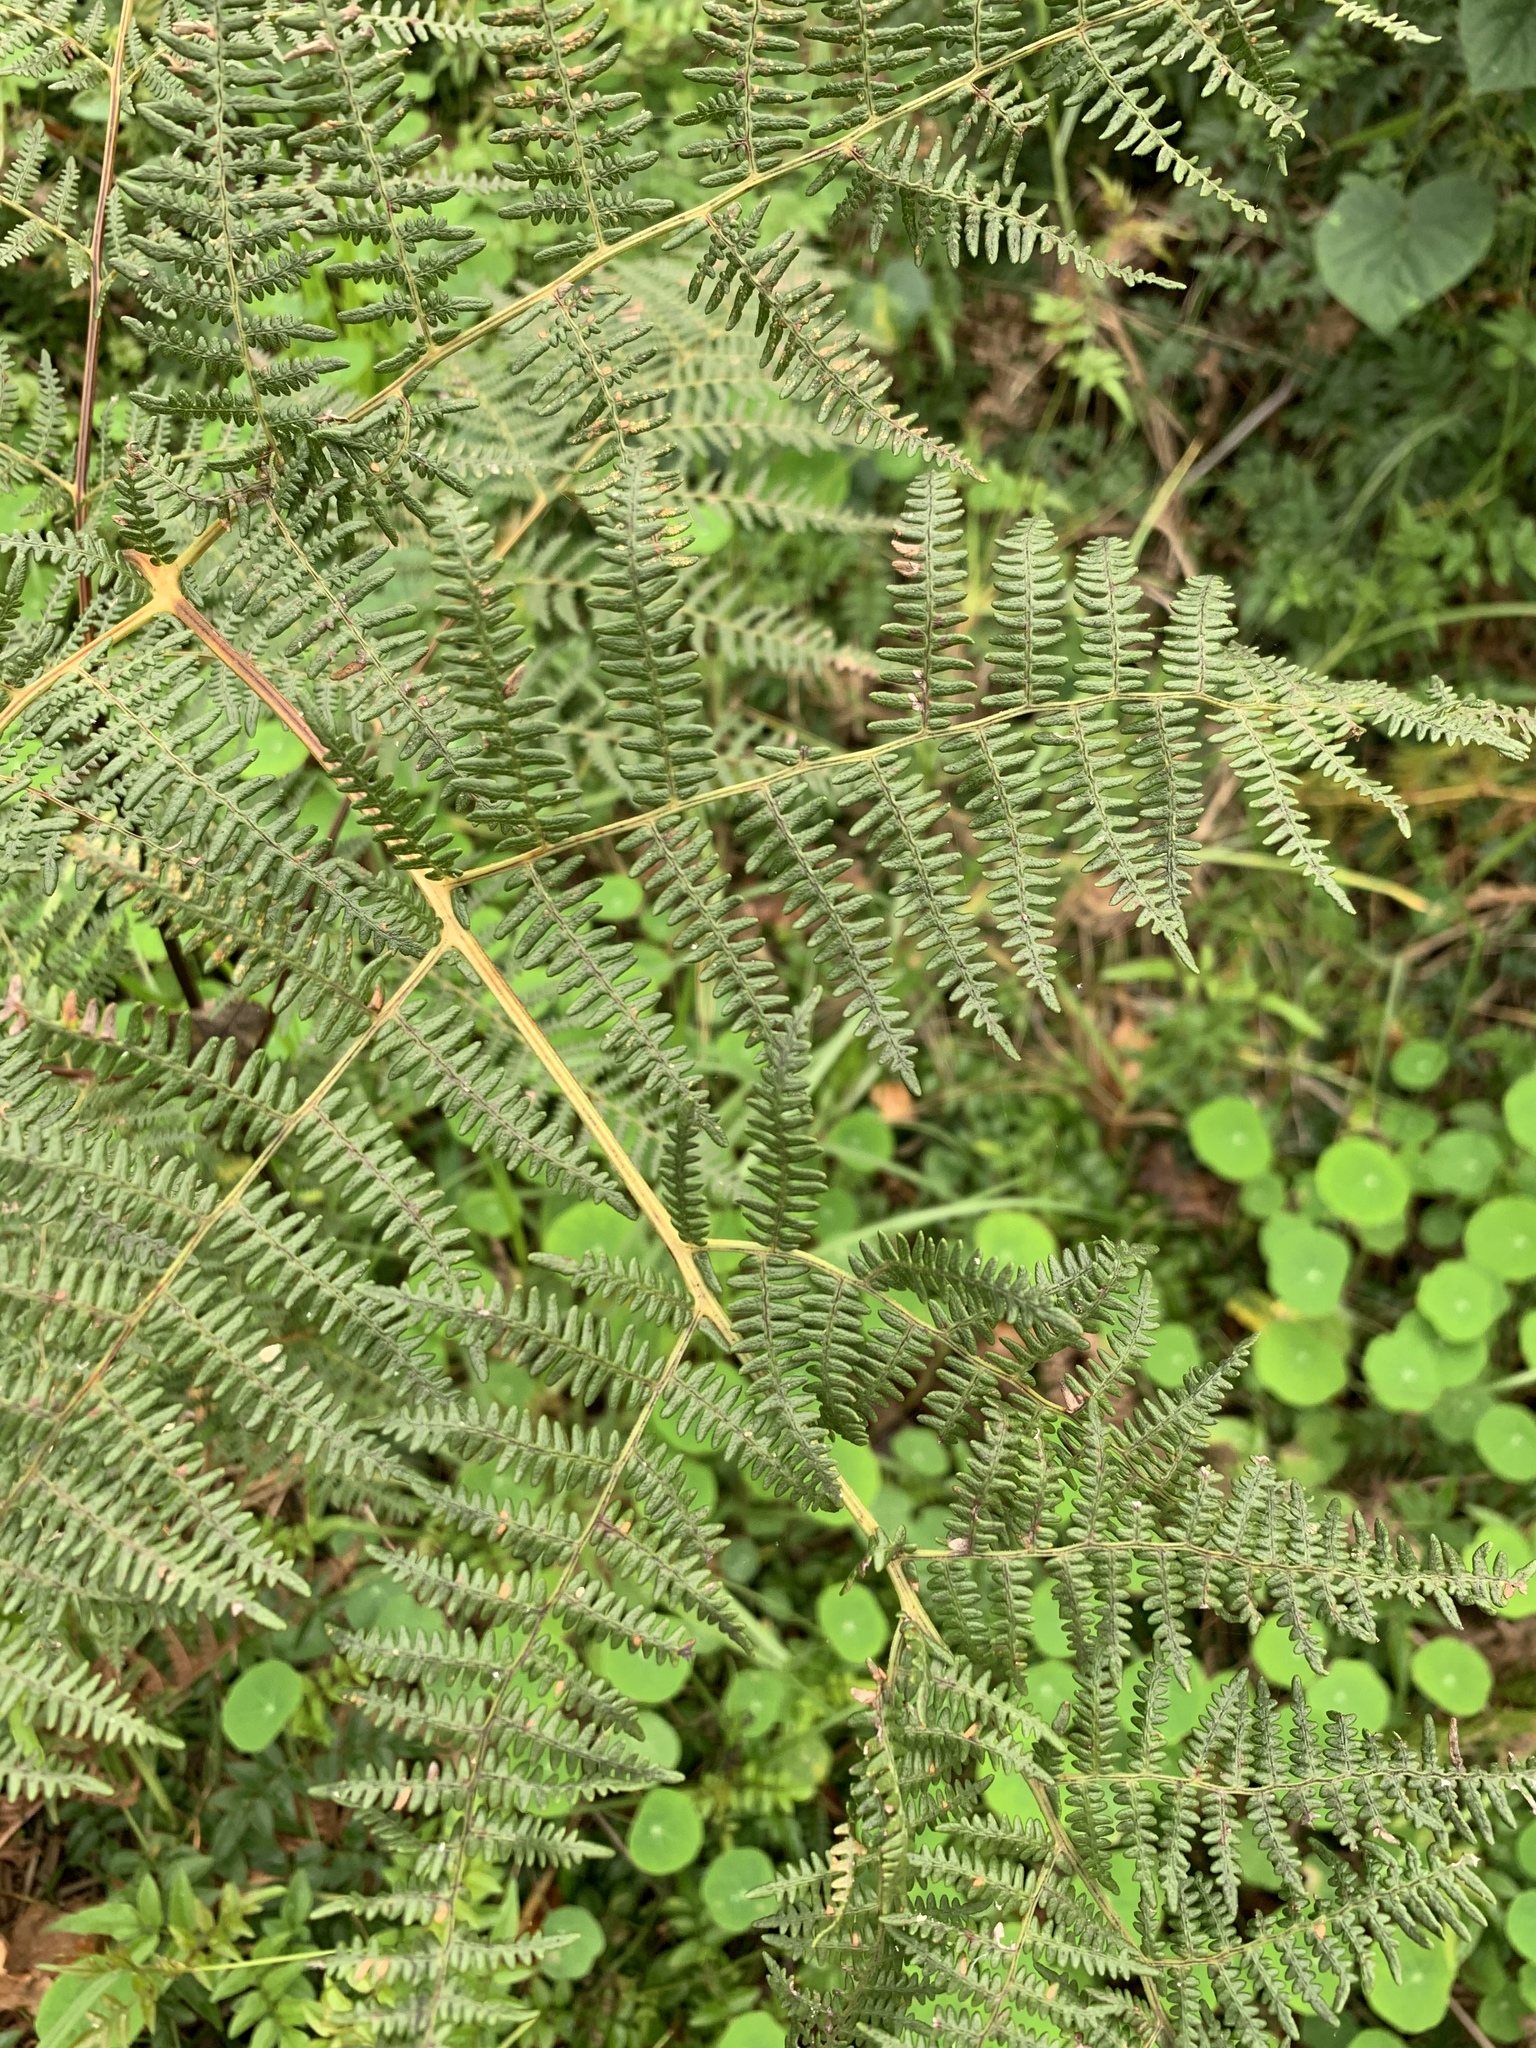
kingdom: Plantae
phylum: Tracheophyta
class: Polypodiopsida
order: Polypodiales
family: Dennstaedtiaceae
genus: Pteridium
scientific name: Pteridium aquilinum
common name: Bracken
